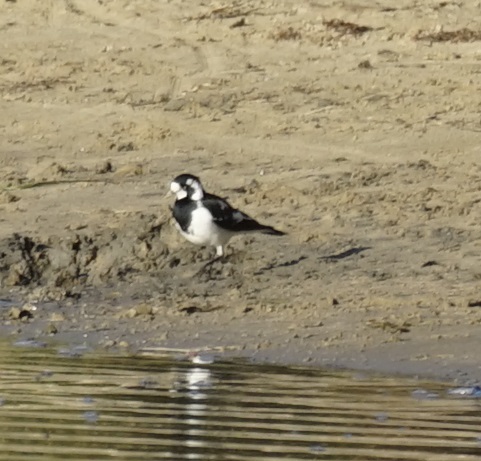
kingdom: Animalia
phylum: Chordata
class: Aves
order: Passeriformes
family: Monarchidae
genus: Grallina
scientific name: Grallina cyanoleuca
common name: Magpie-lark
